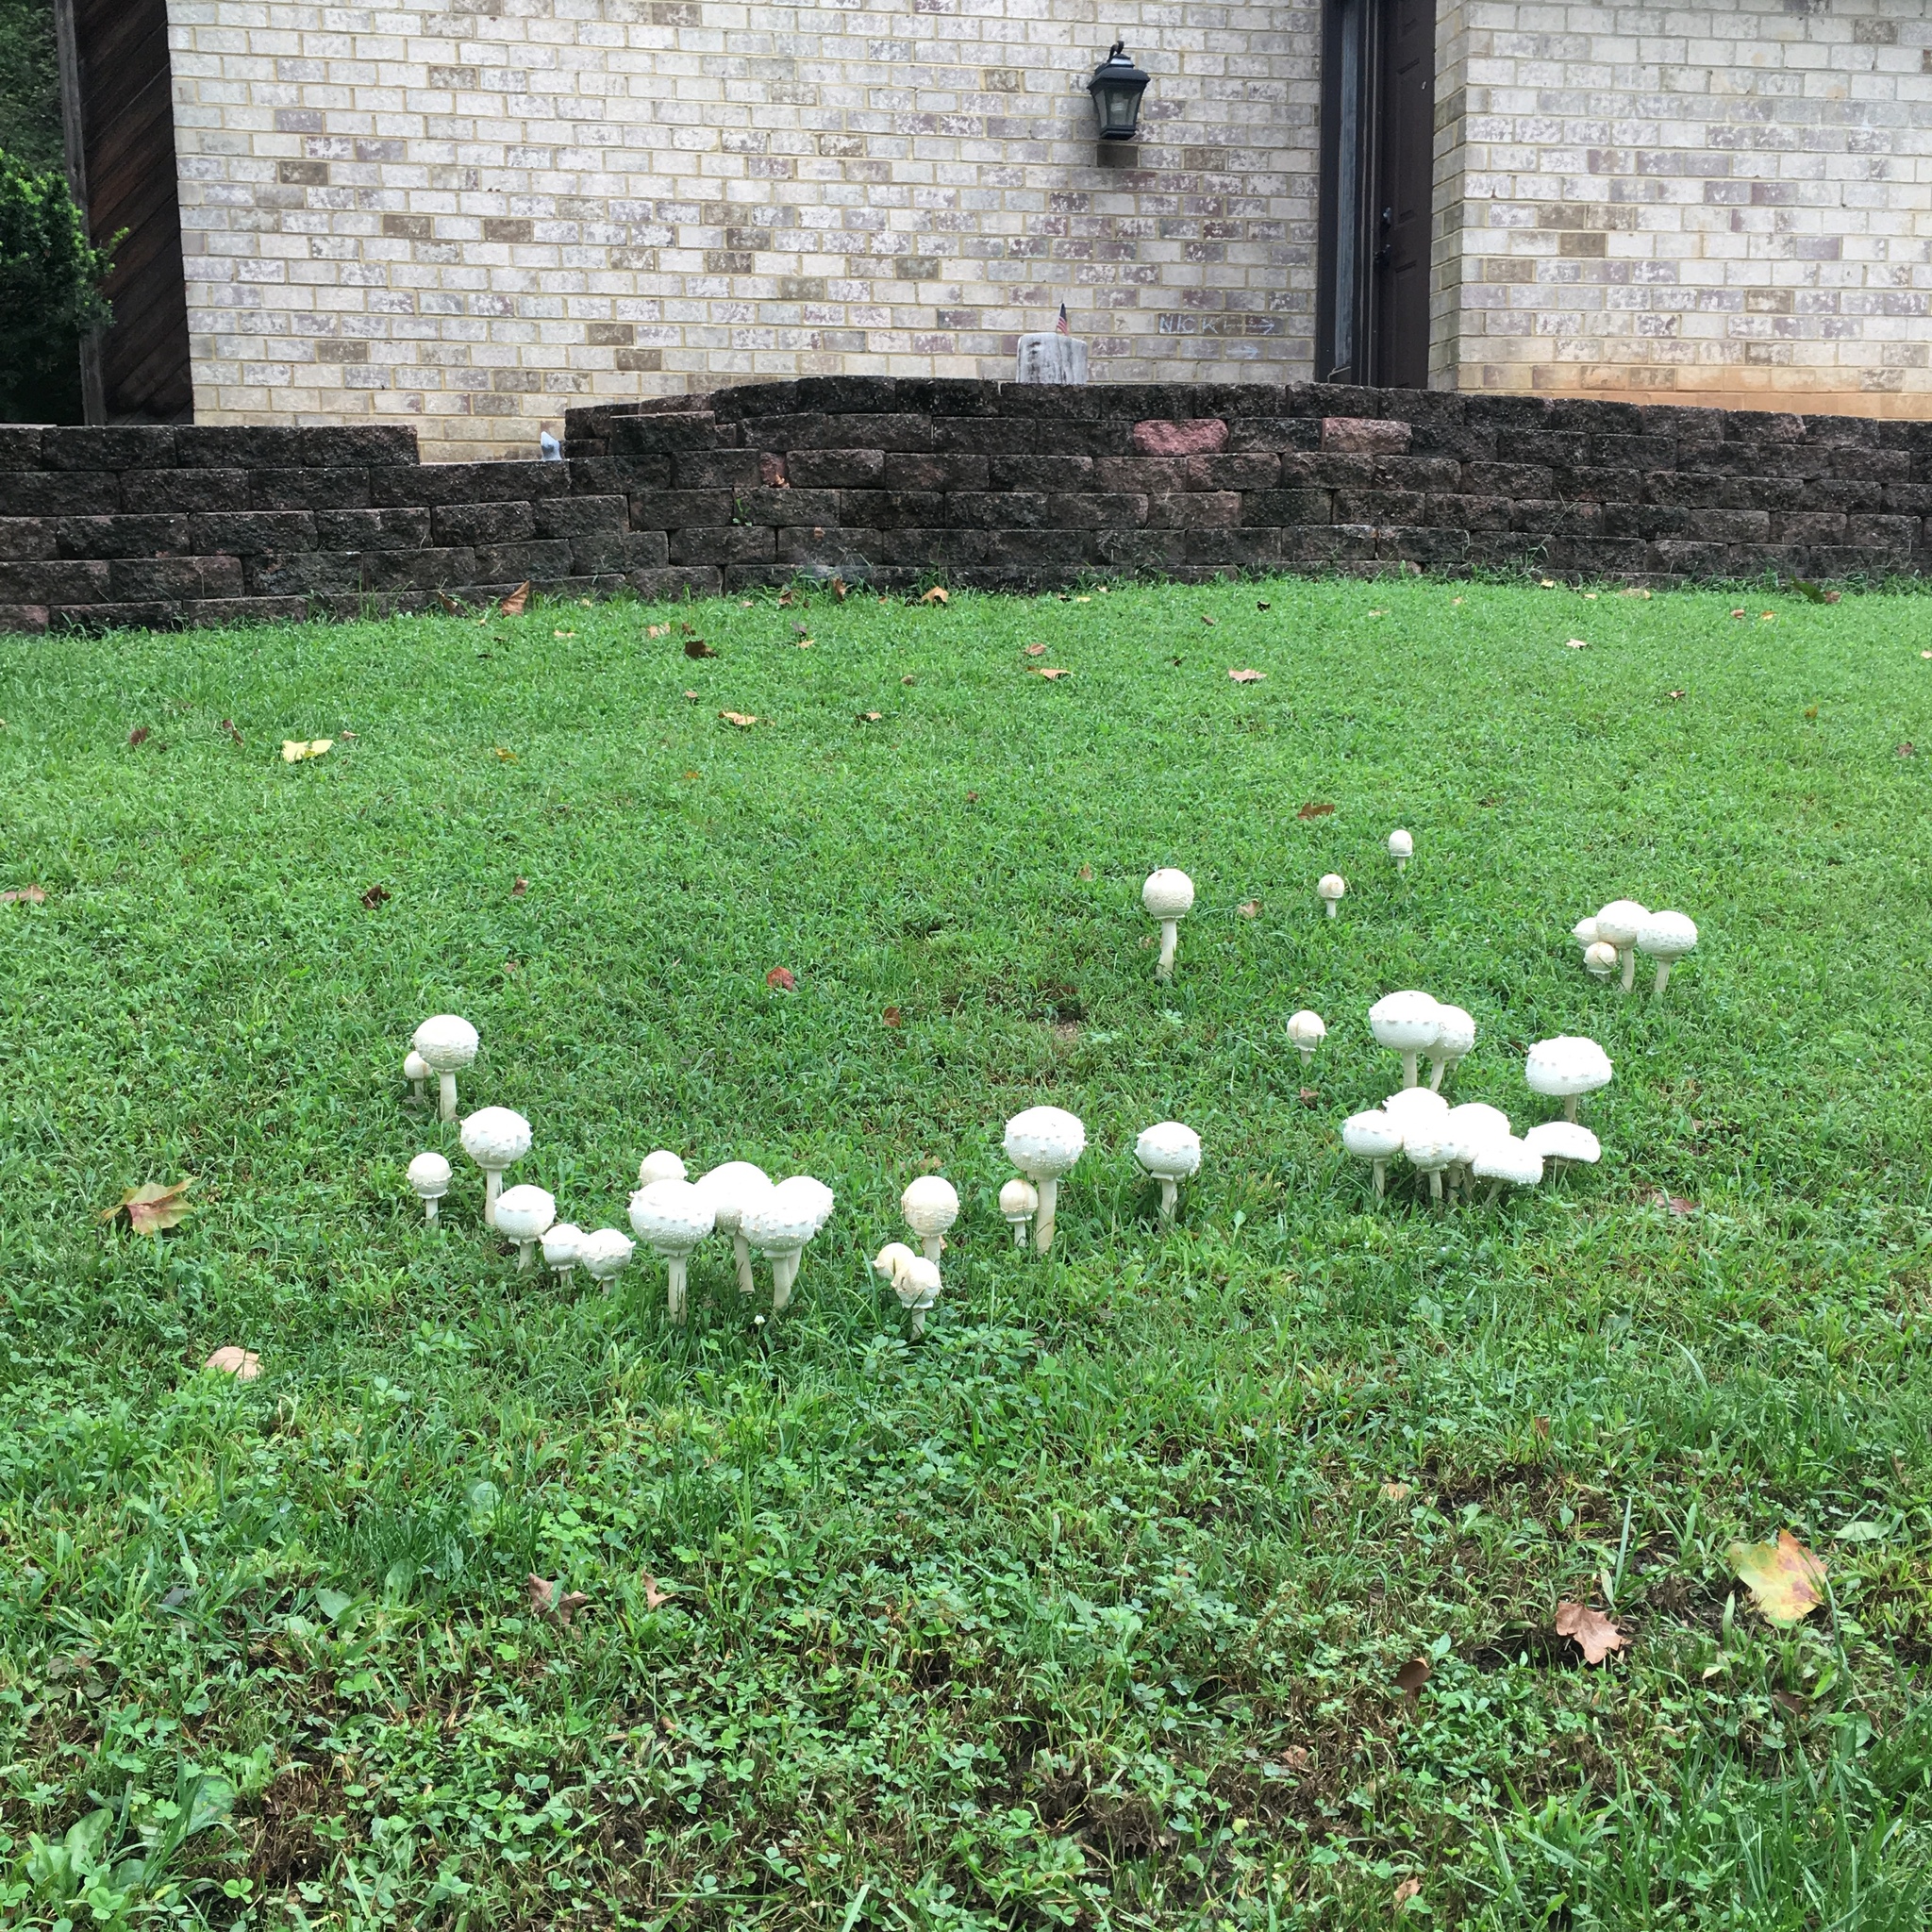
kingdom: Fungi
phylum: Basidiomycota
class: Agaricomycetes
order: Agaricales
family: Agaricaceae
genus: Chlorophyllum
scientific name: Chlorophyllum molybdites
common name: False parasol
